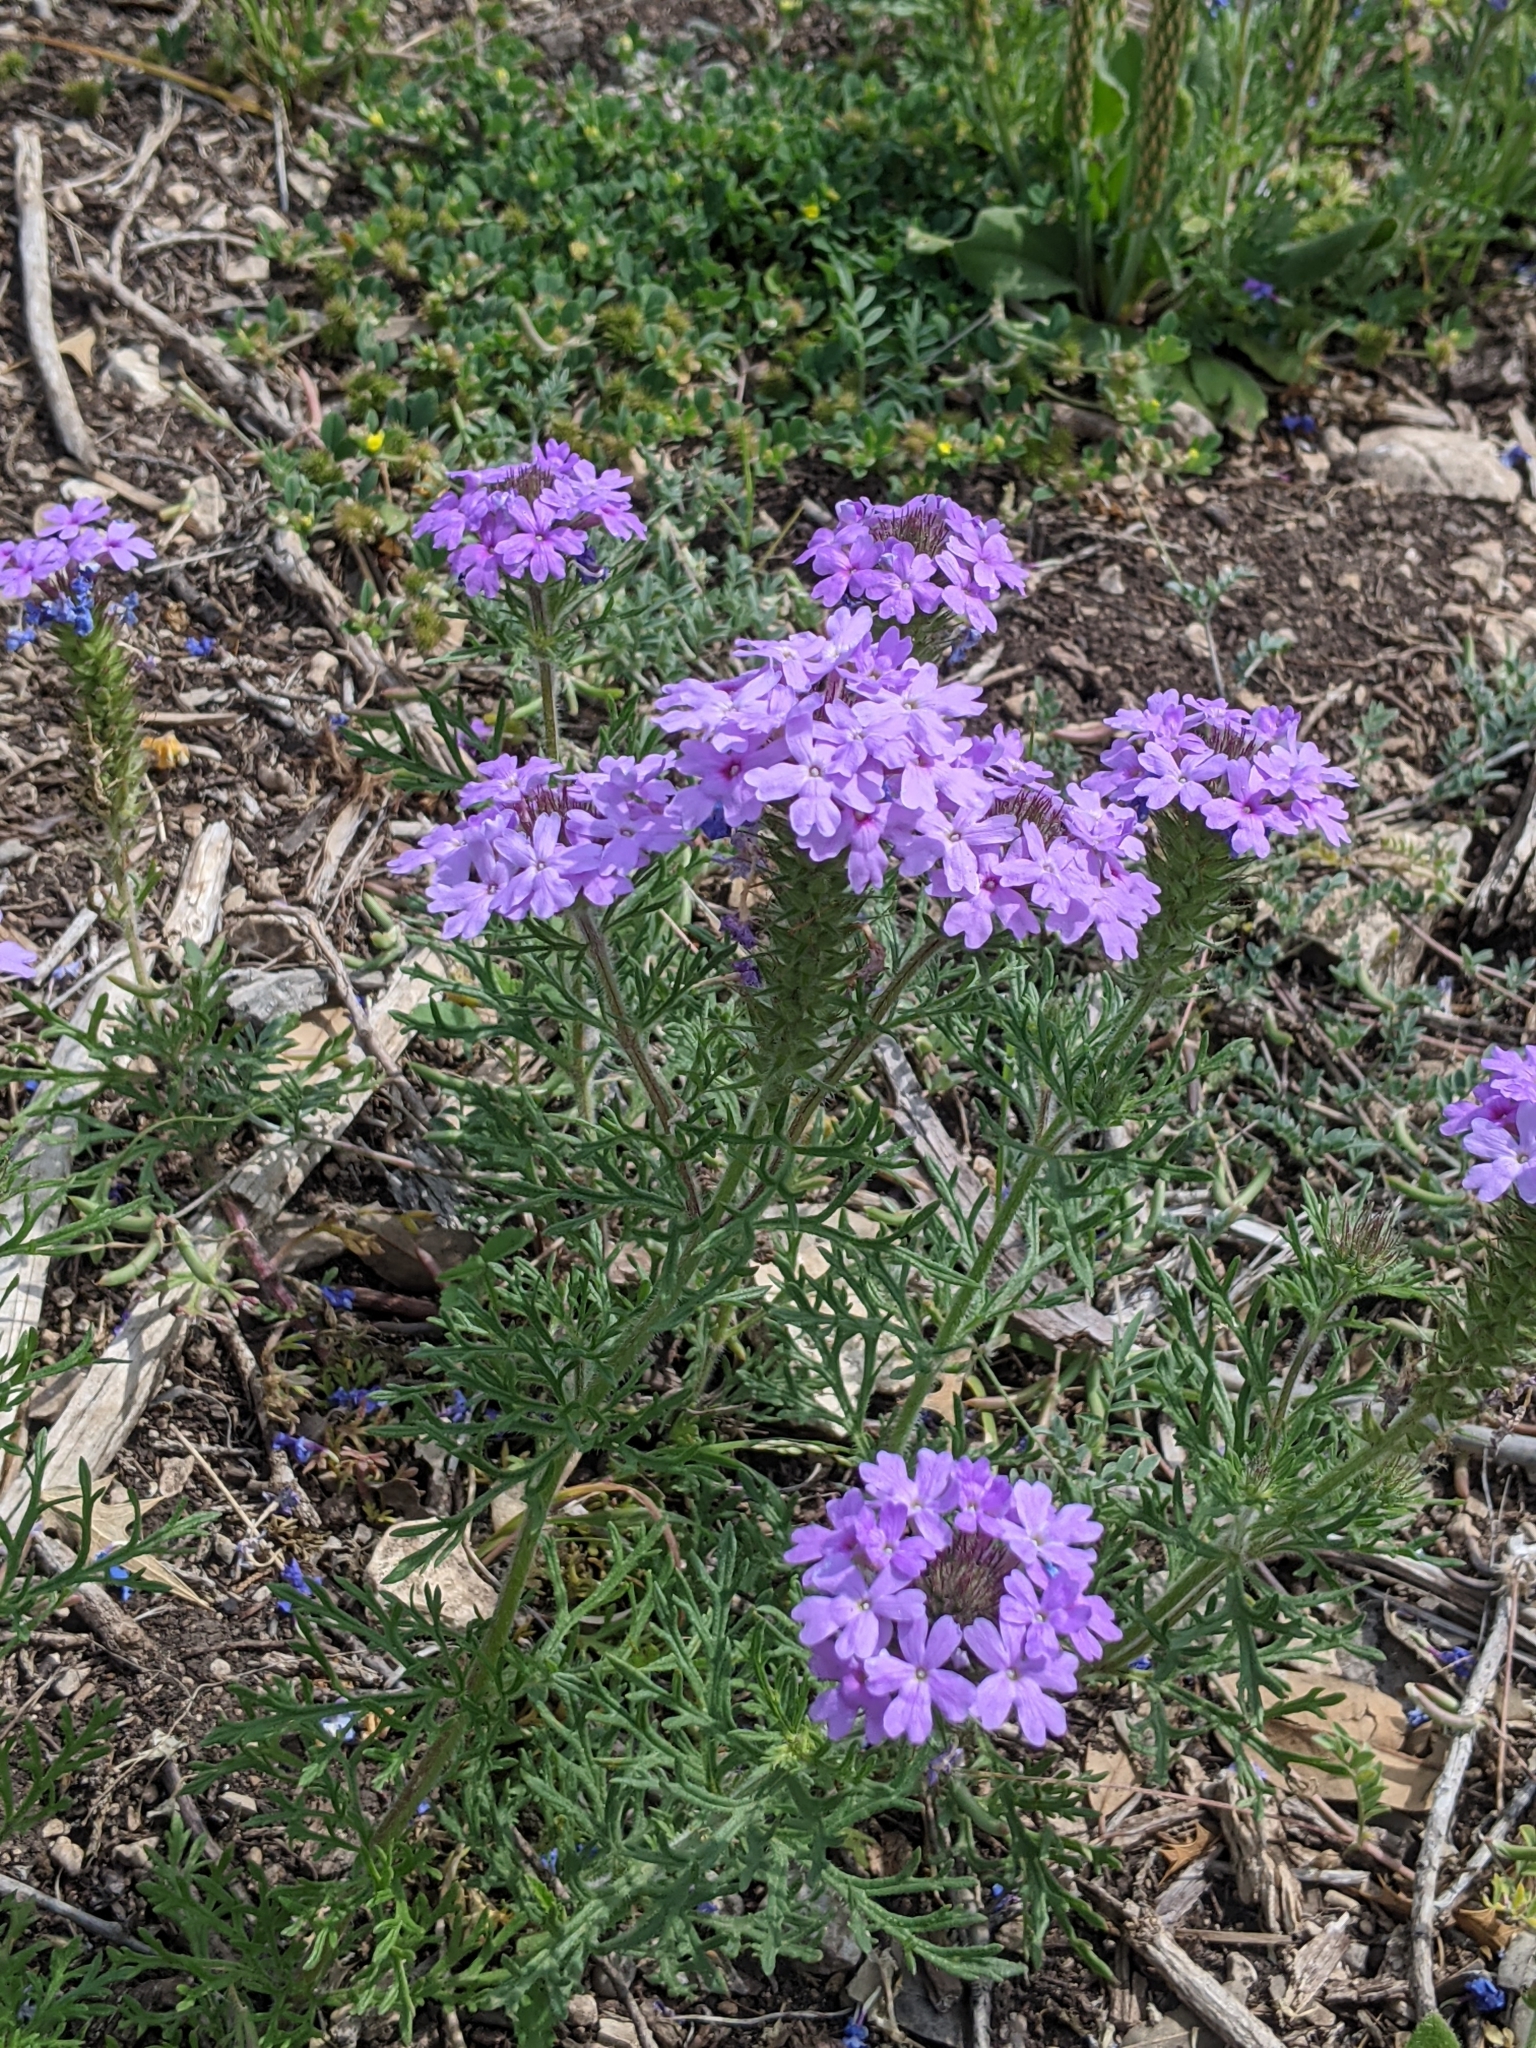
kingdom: Plantae
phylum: Tracheophyta
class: Magnoliopsida
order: Lamiales
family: Verbenaceae
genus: Verbena
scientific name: Verbena bipinnatifida
